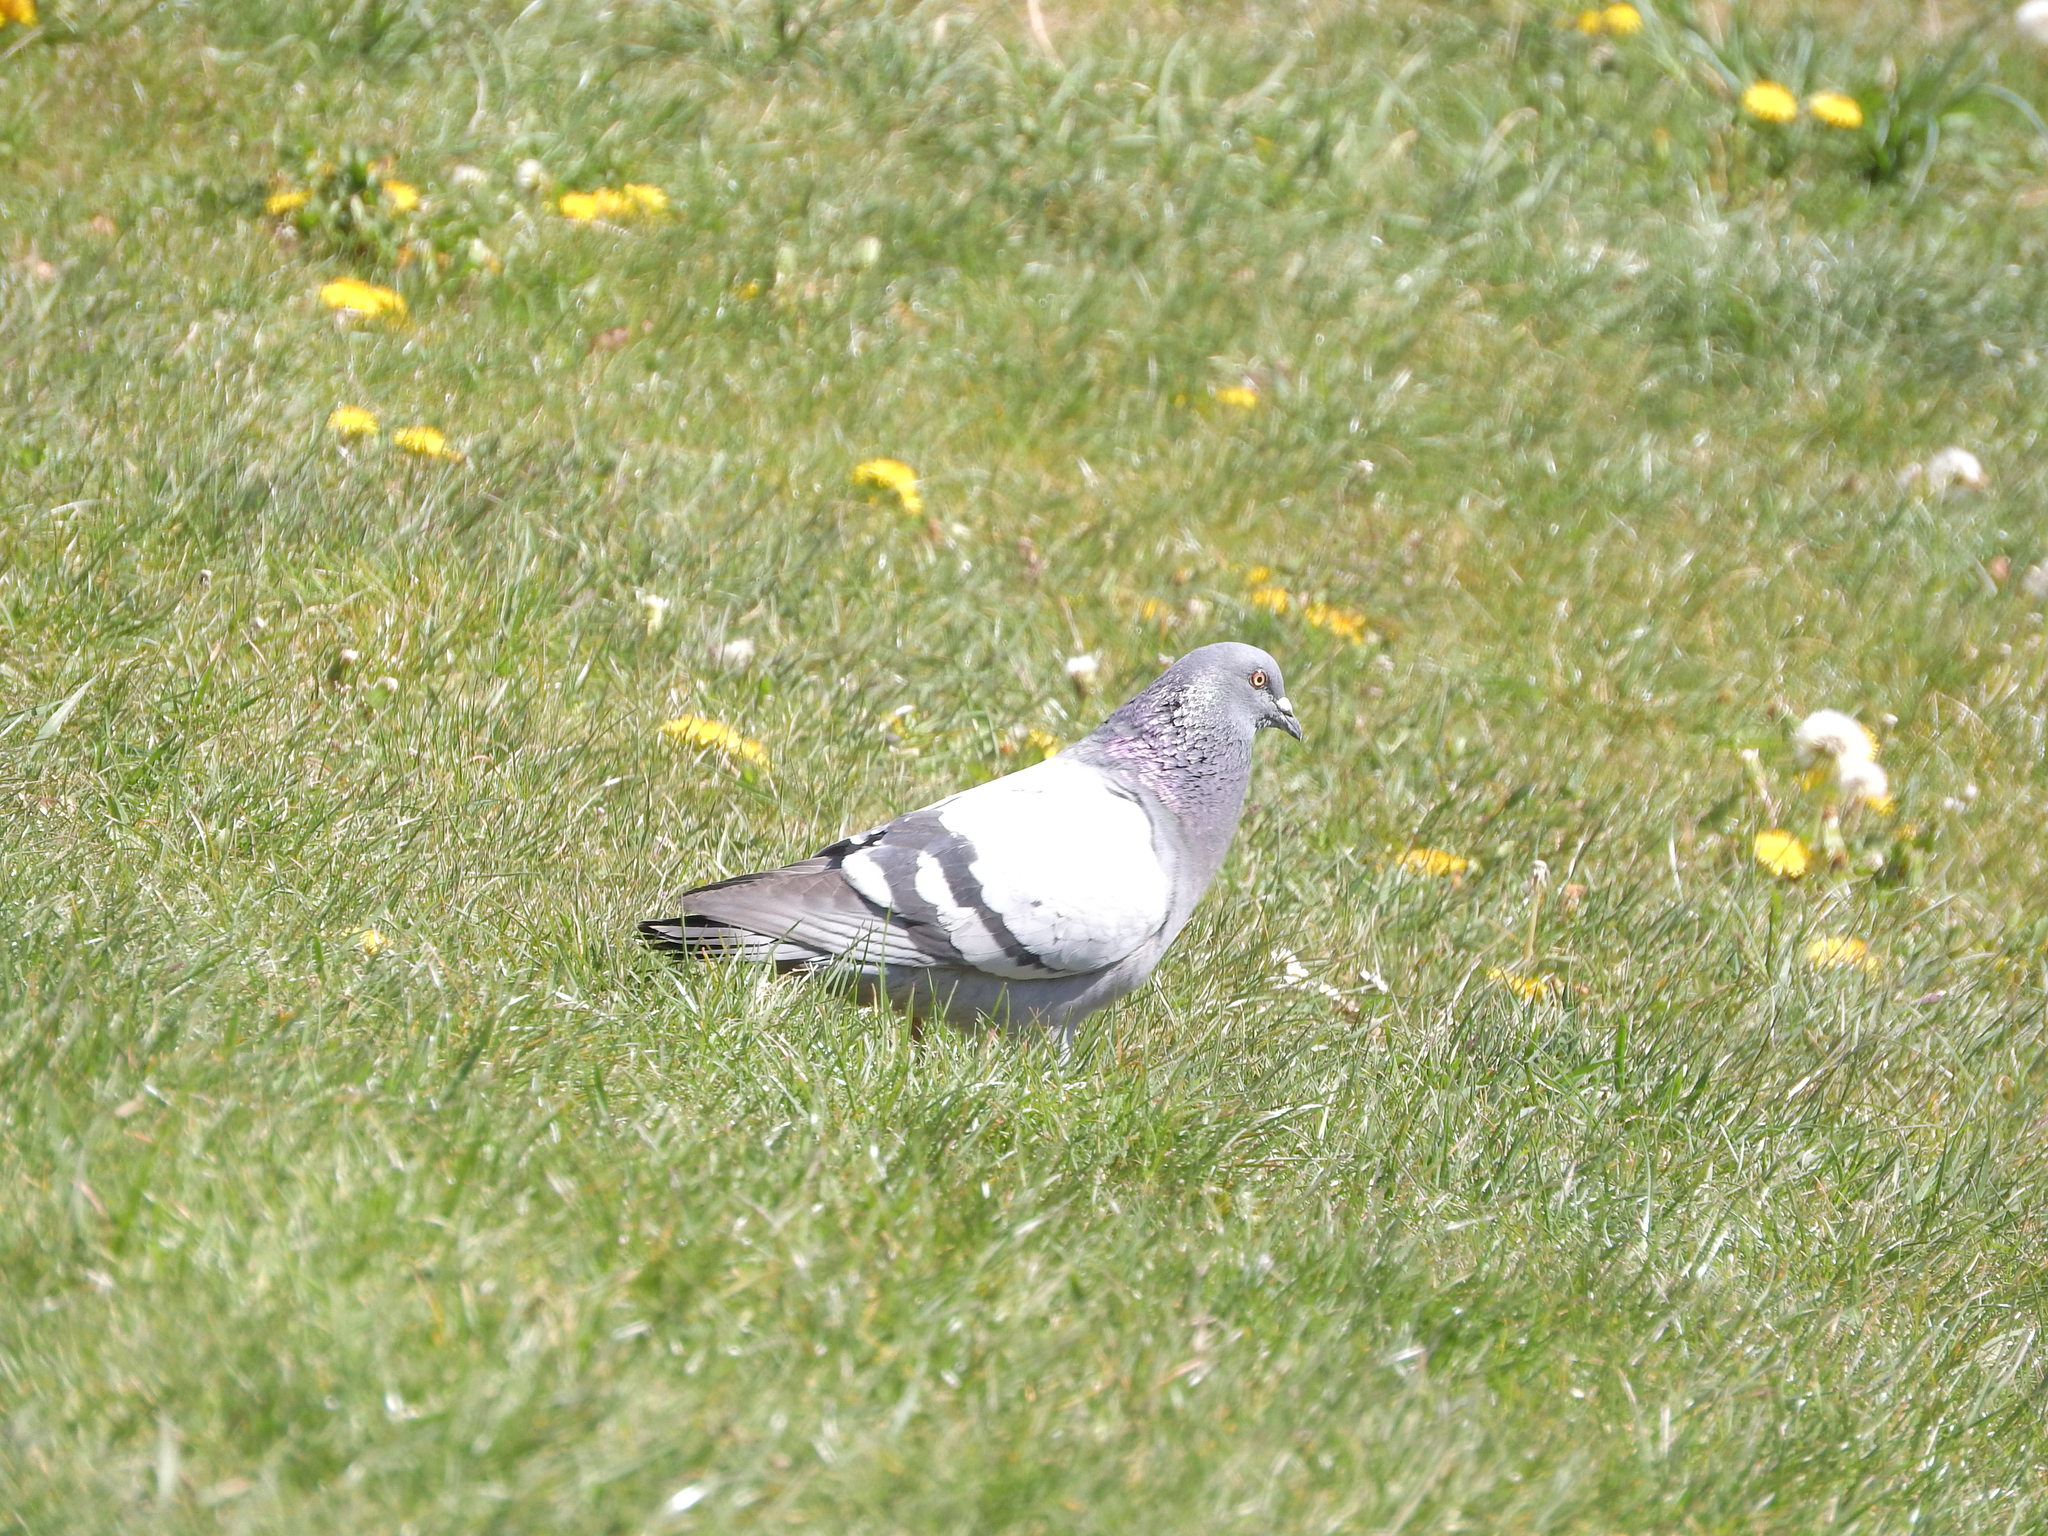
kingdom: Animalia
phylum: Chordata
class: Aves
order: Columbiformes
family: Columbidae
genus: Columba
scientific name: Columba livia
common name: Rock pigeon
